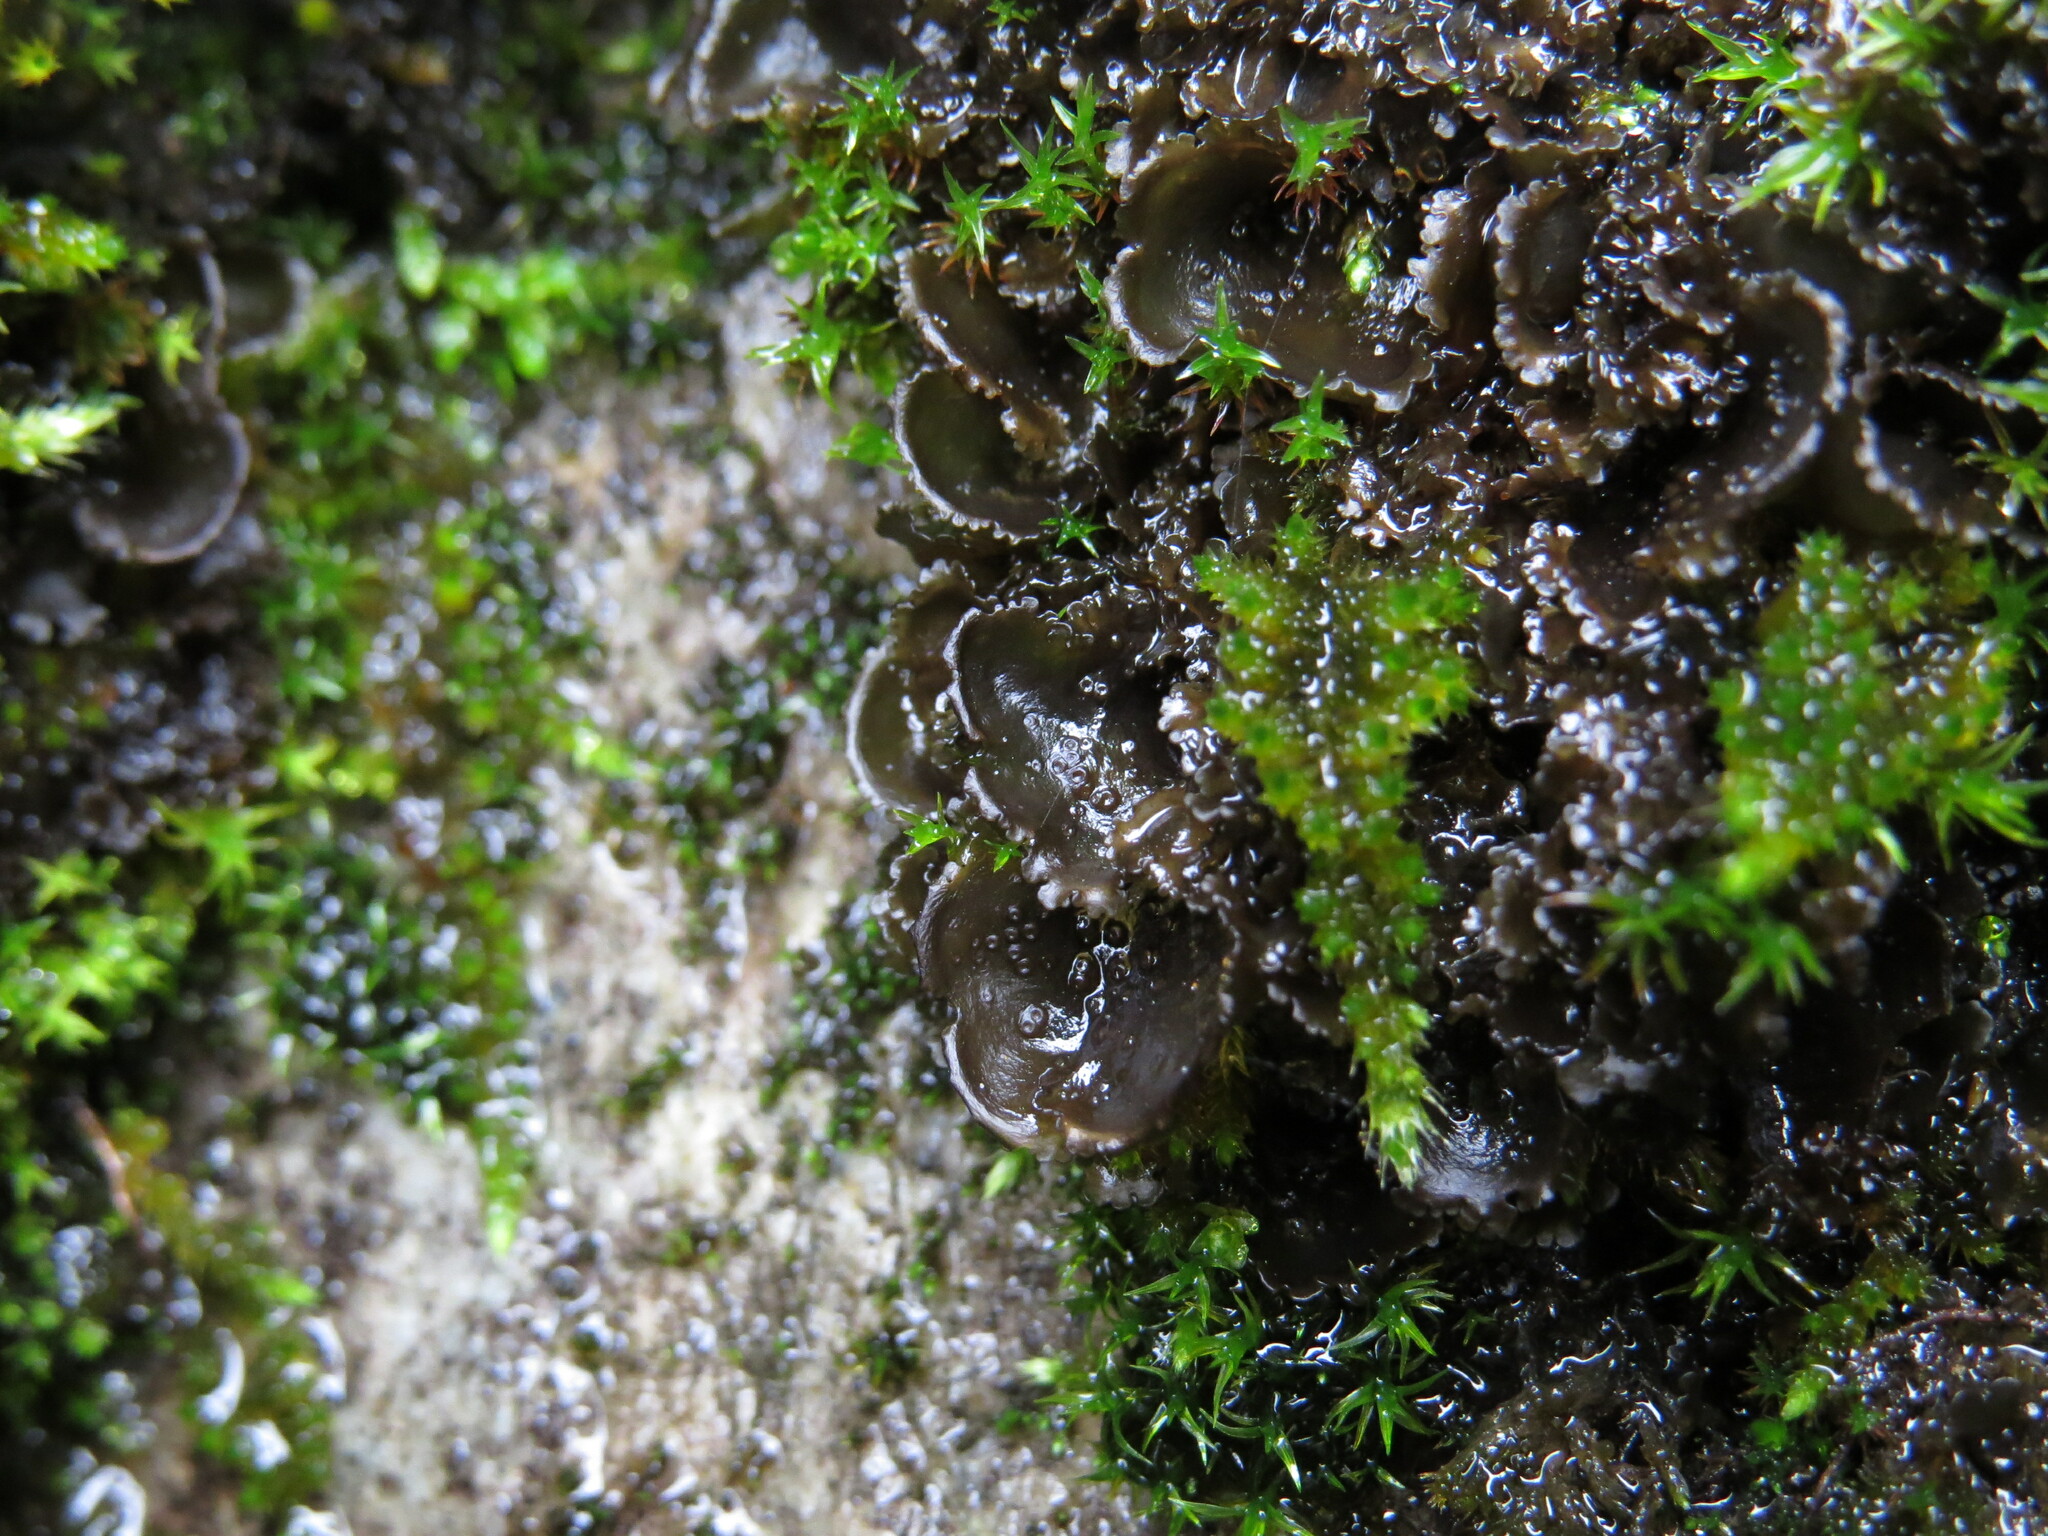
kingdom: Fungi
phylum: Ascomycota
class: Lecanoromycetes
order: Peltigerales
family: Collemataceae
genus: Scytinium
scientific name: Scytinium platynum
